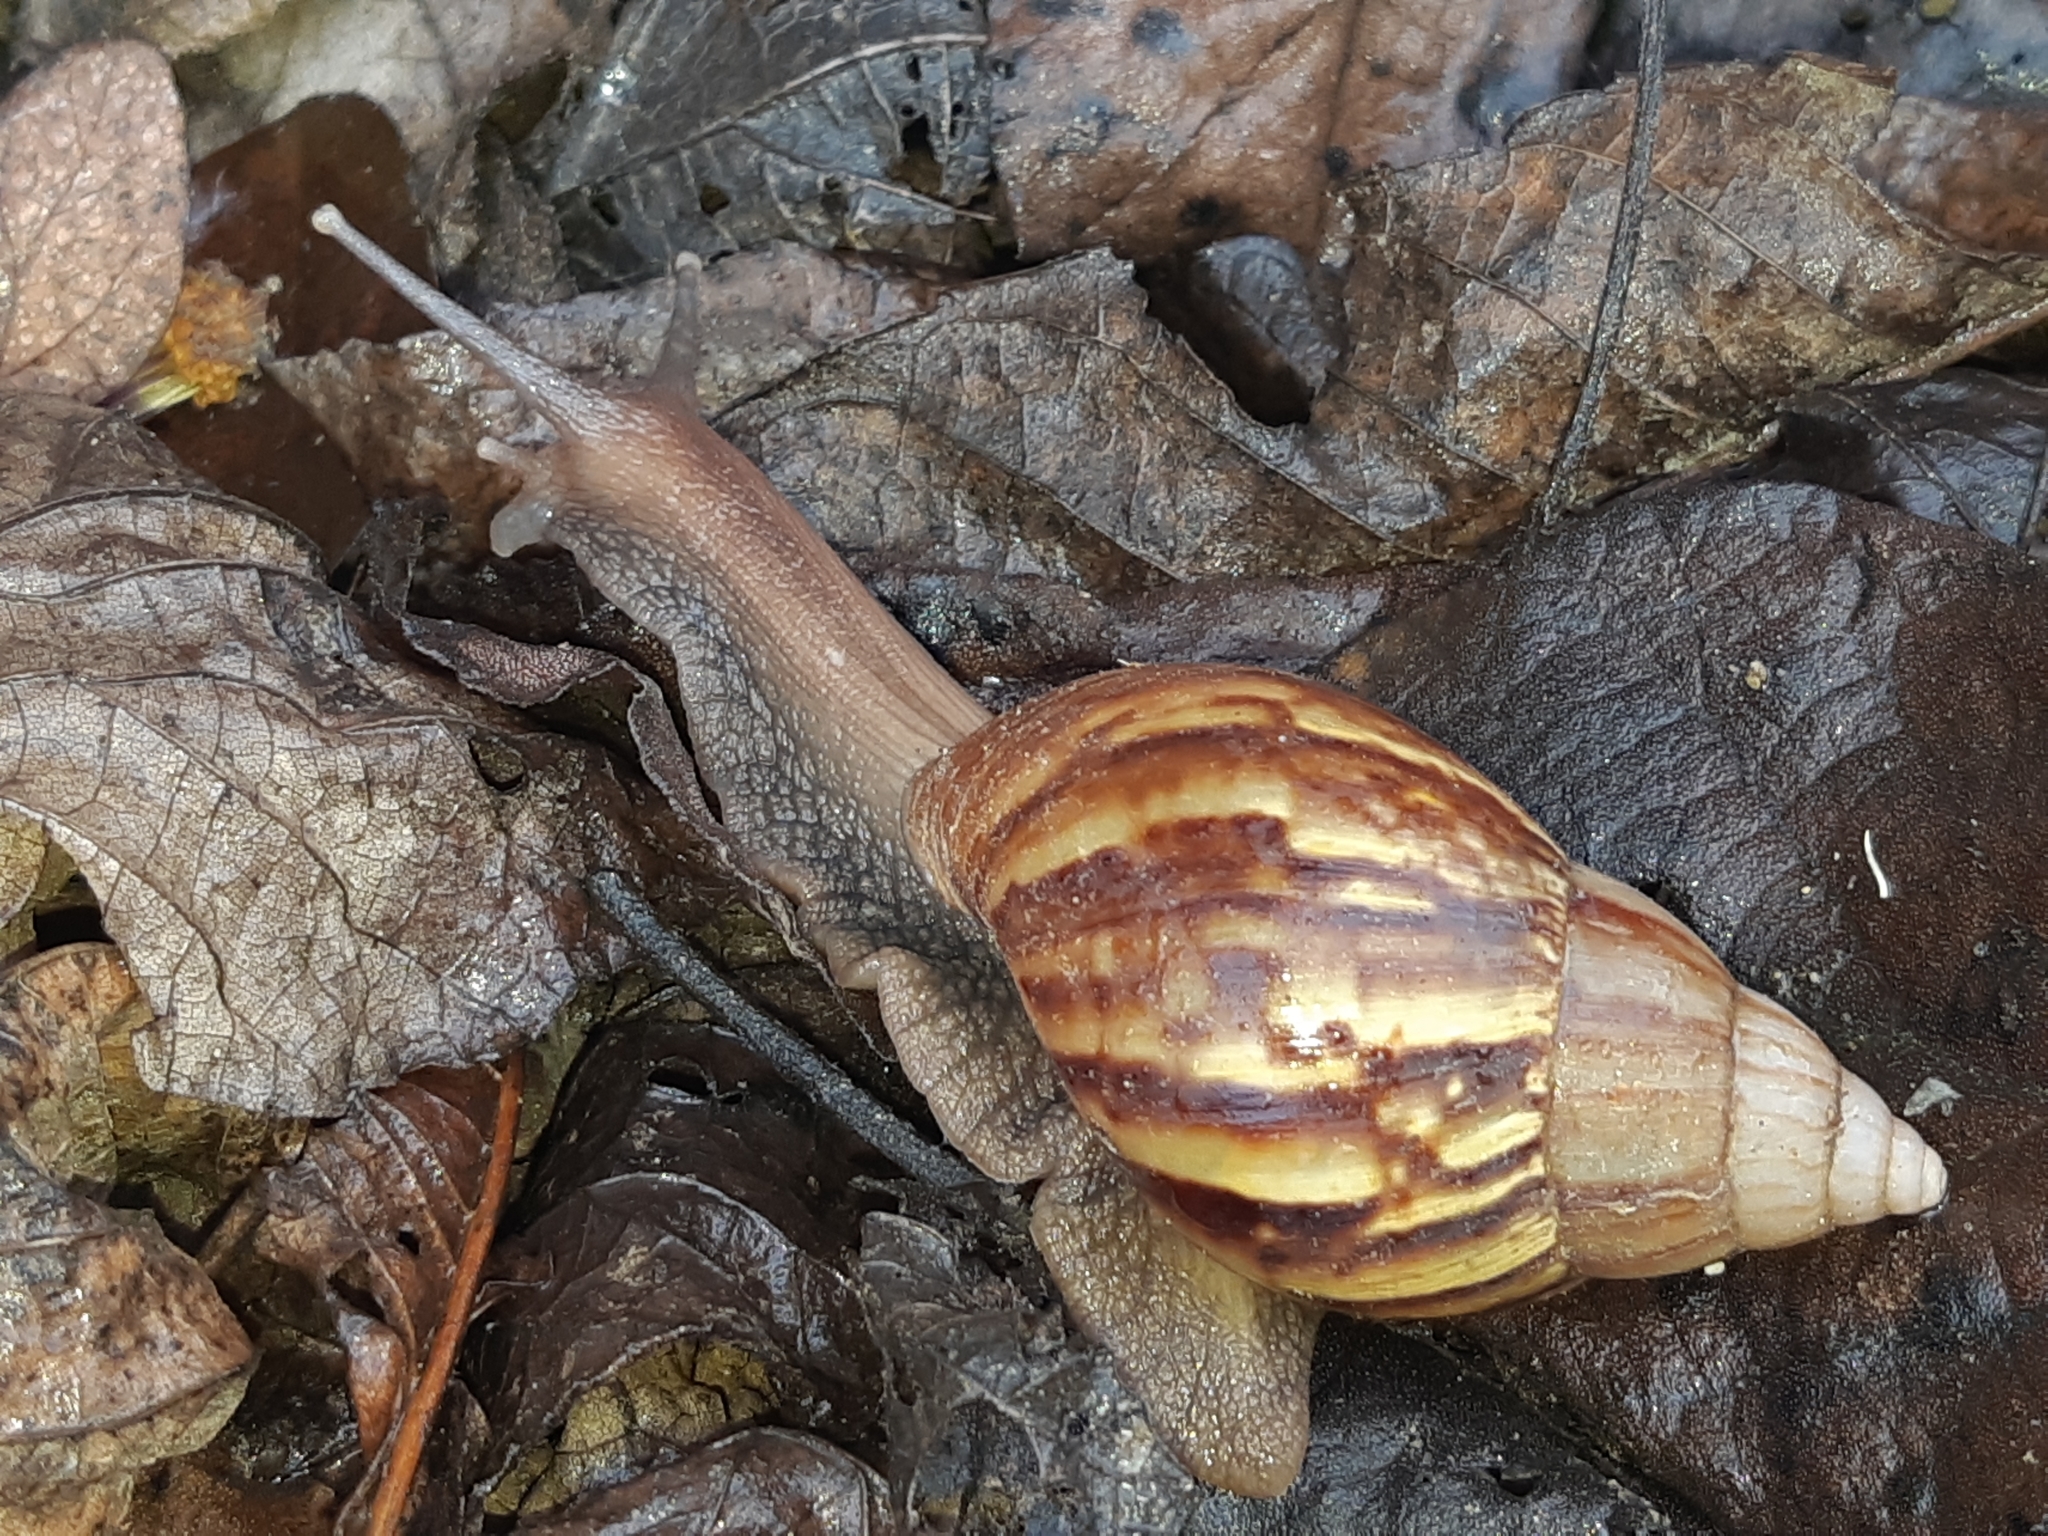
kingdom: Animalia
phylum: Mollusca
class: Gastropoda
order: Stylommatophora
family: Achatinidae
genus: Lissachatina
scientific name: Lissachatina fulica
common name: Giant african snail
